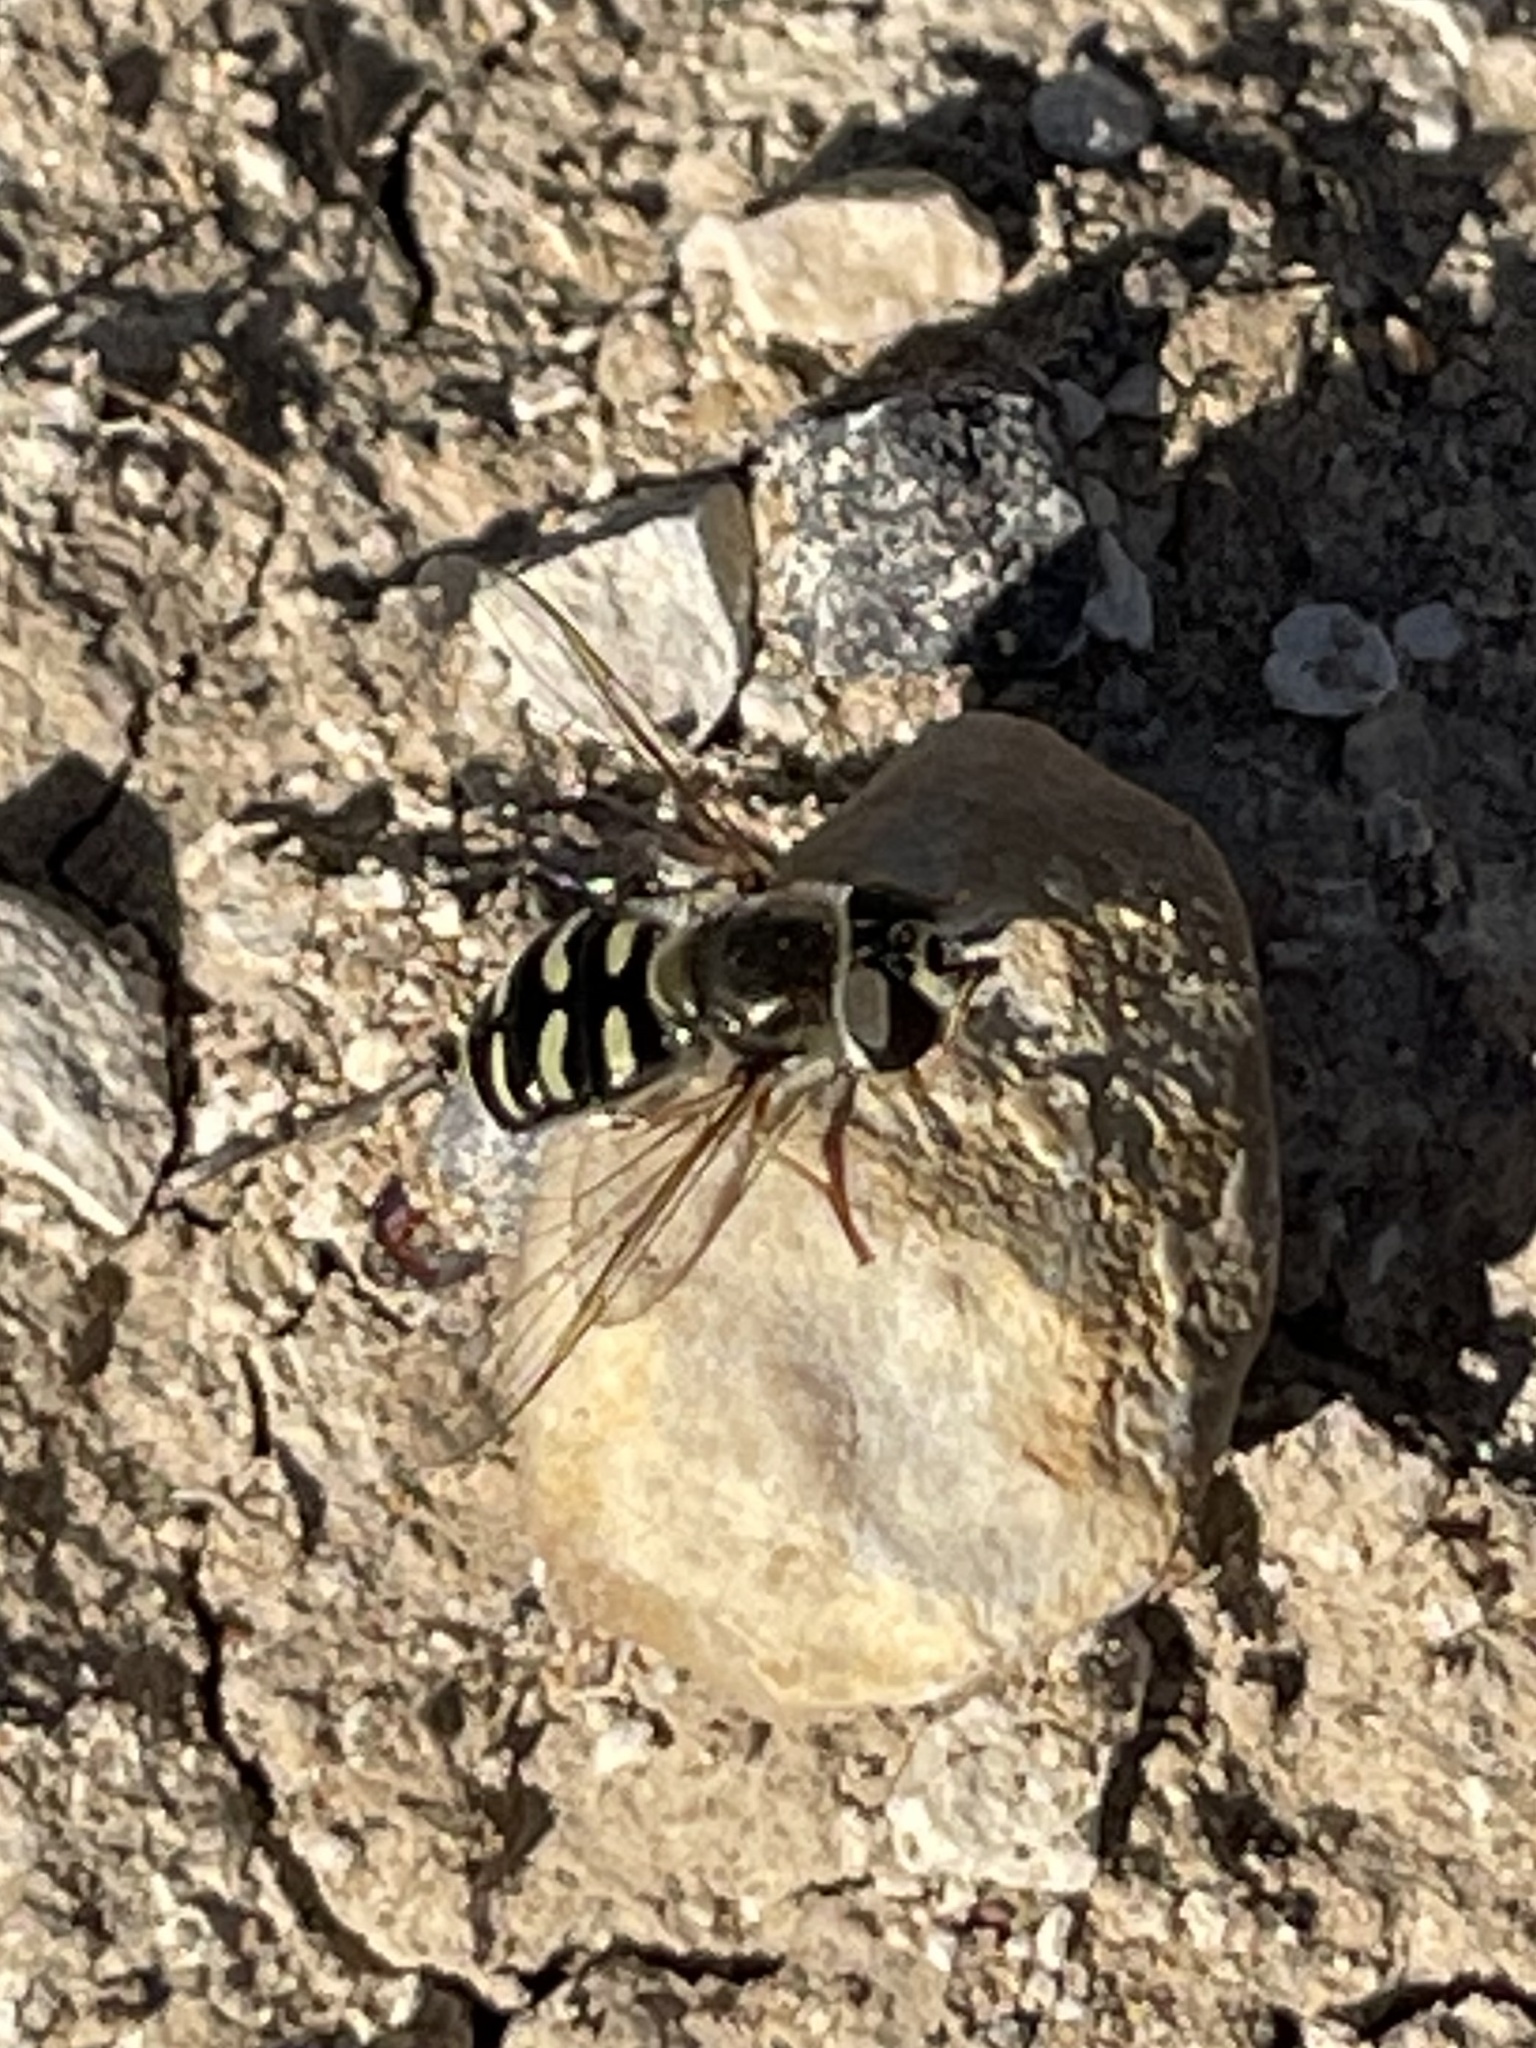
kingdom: Animalia
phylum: Arthropoda
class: Insecta
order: Diptera
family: Syrphidae
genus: Eupeodes
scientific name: Eupeodes volucris
